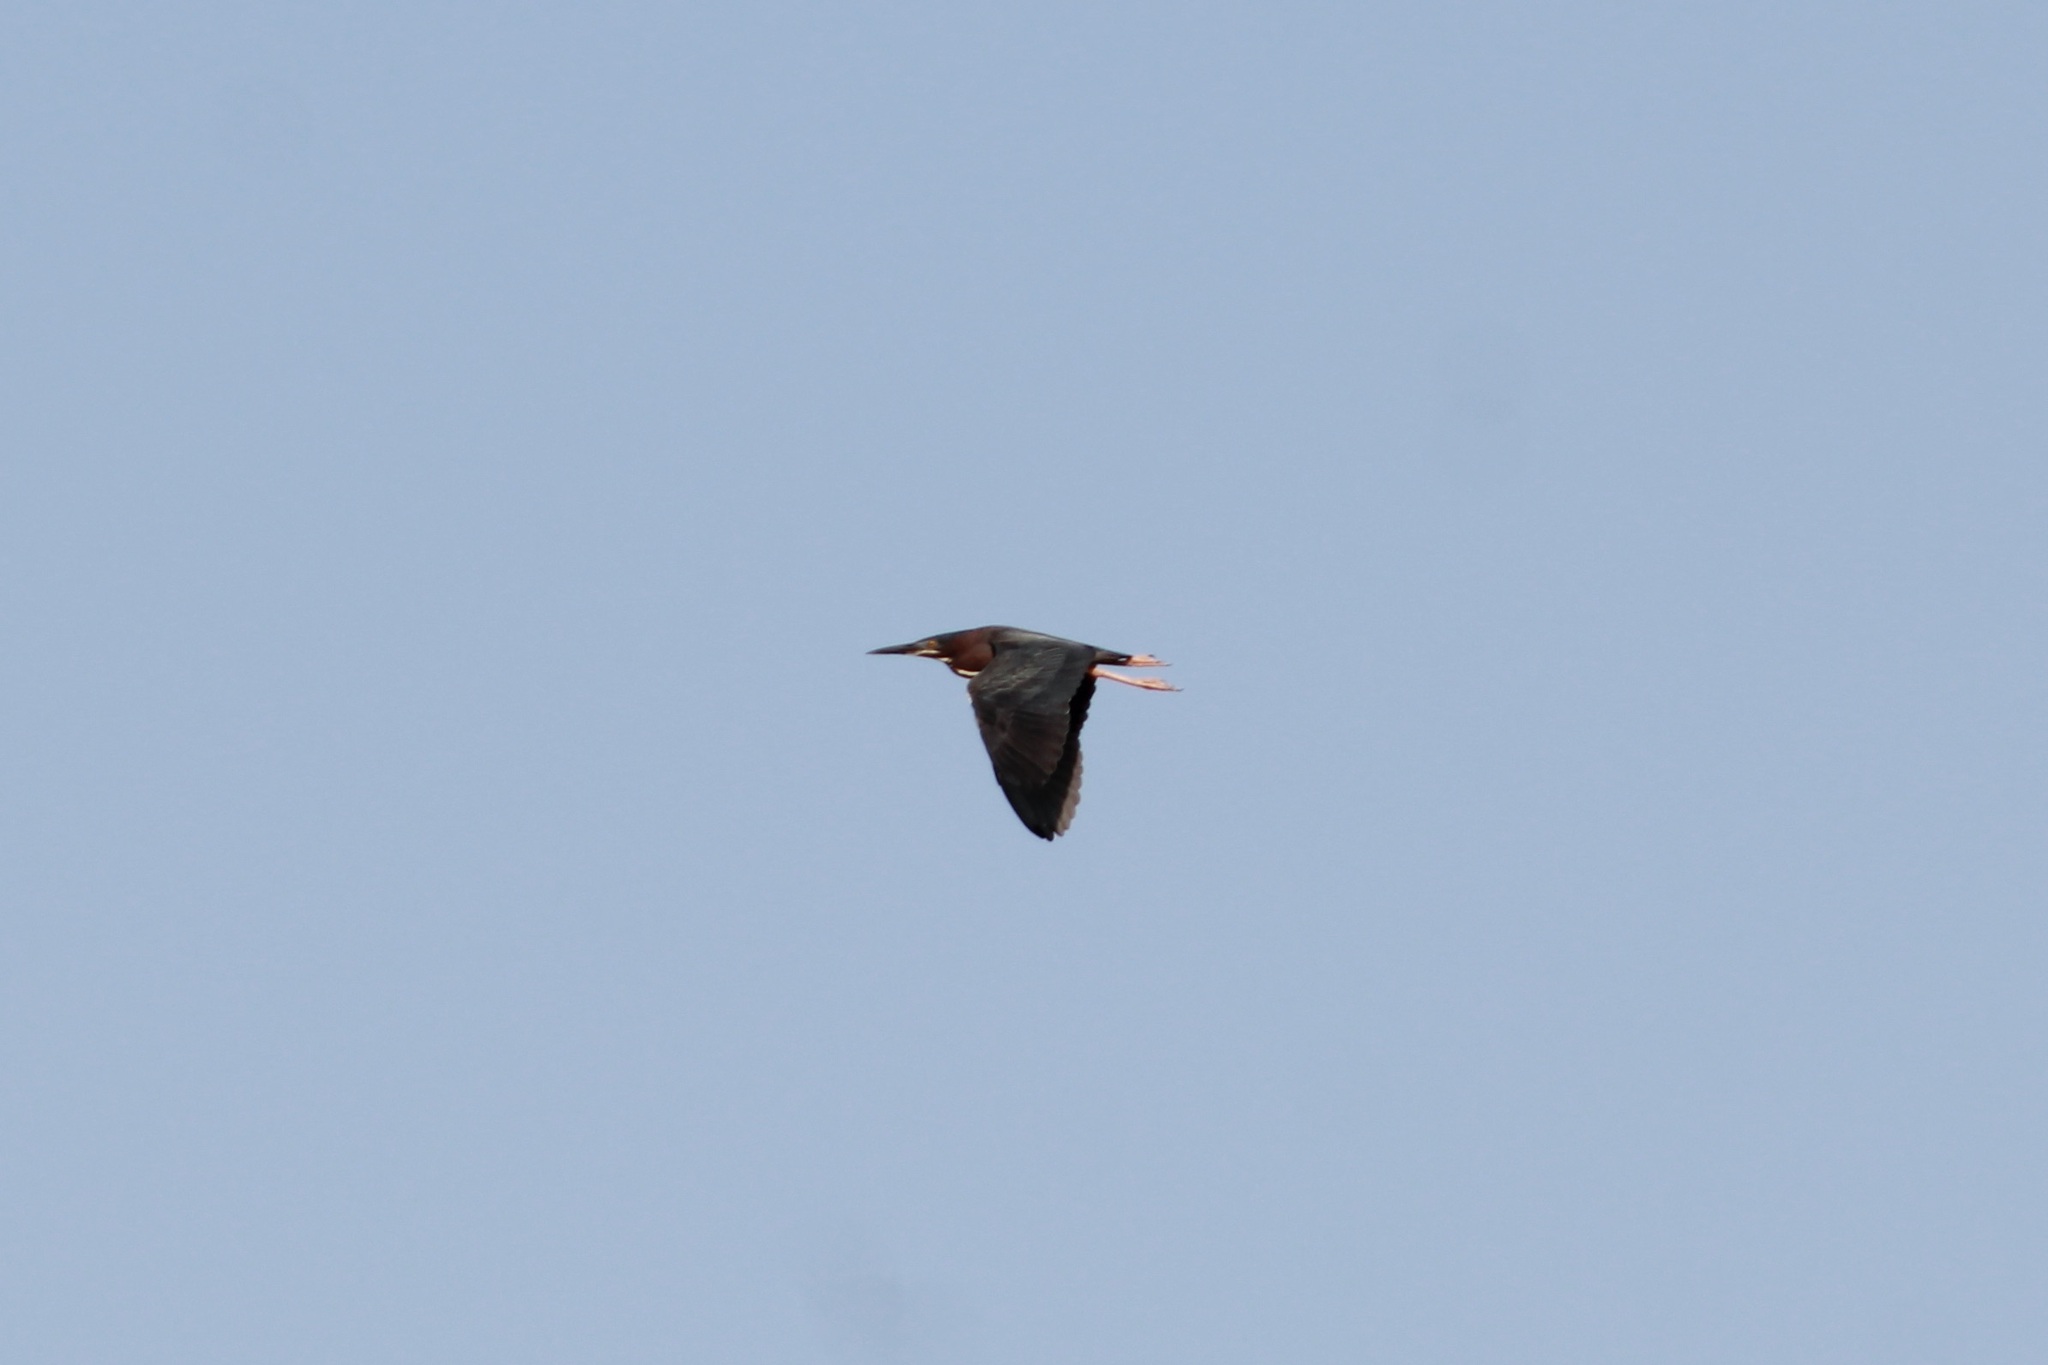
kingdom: Animalia
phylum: Chordata
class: Aves
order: Pelecaniformes
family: Ardeidae
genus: Butorides
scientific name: Butorides virescens
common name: Green heron
